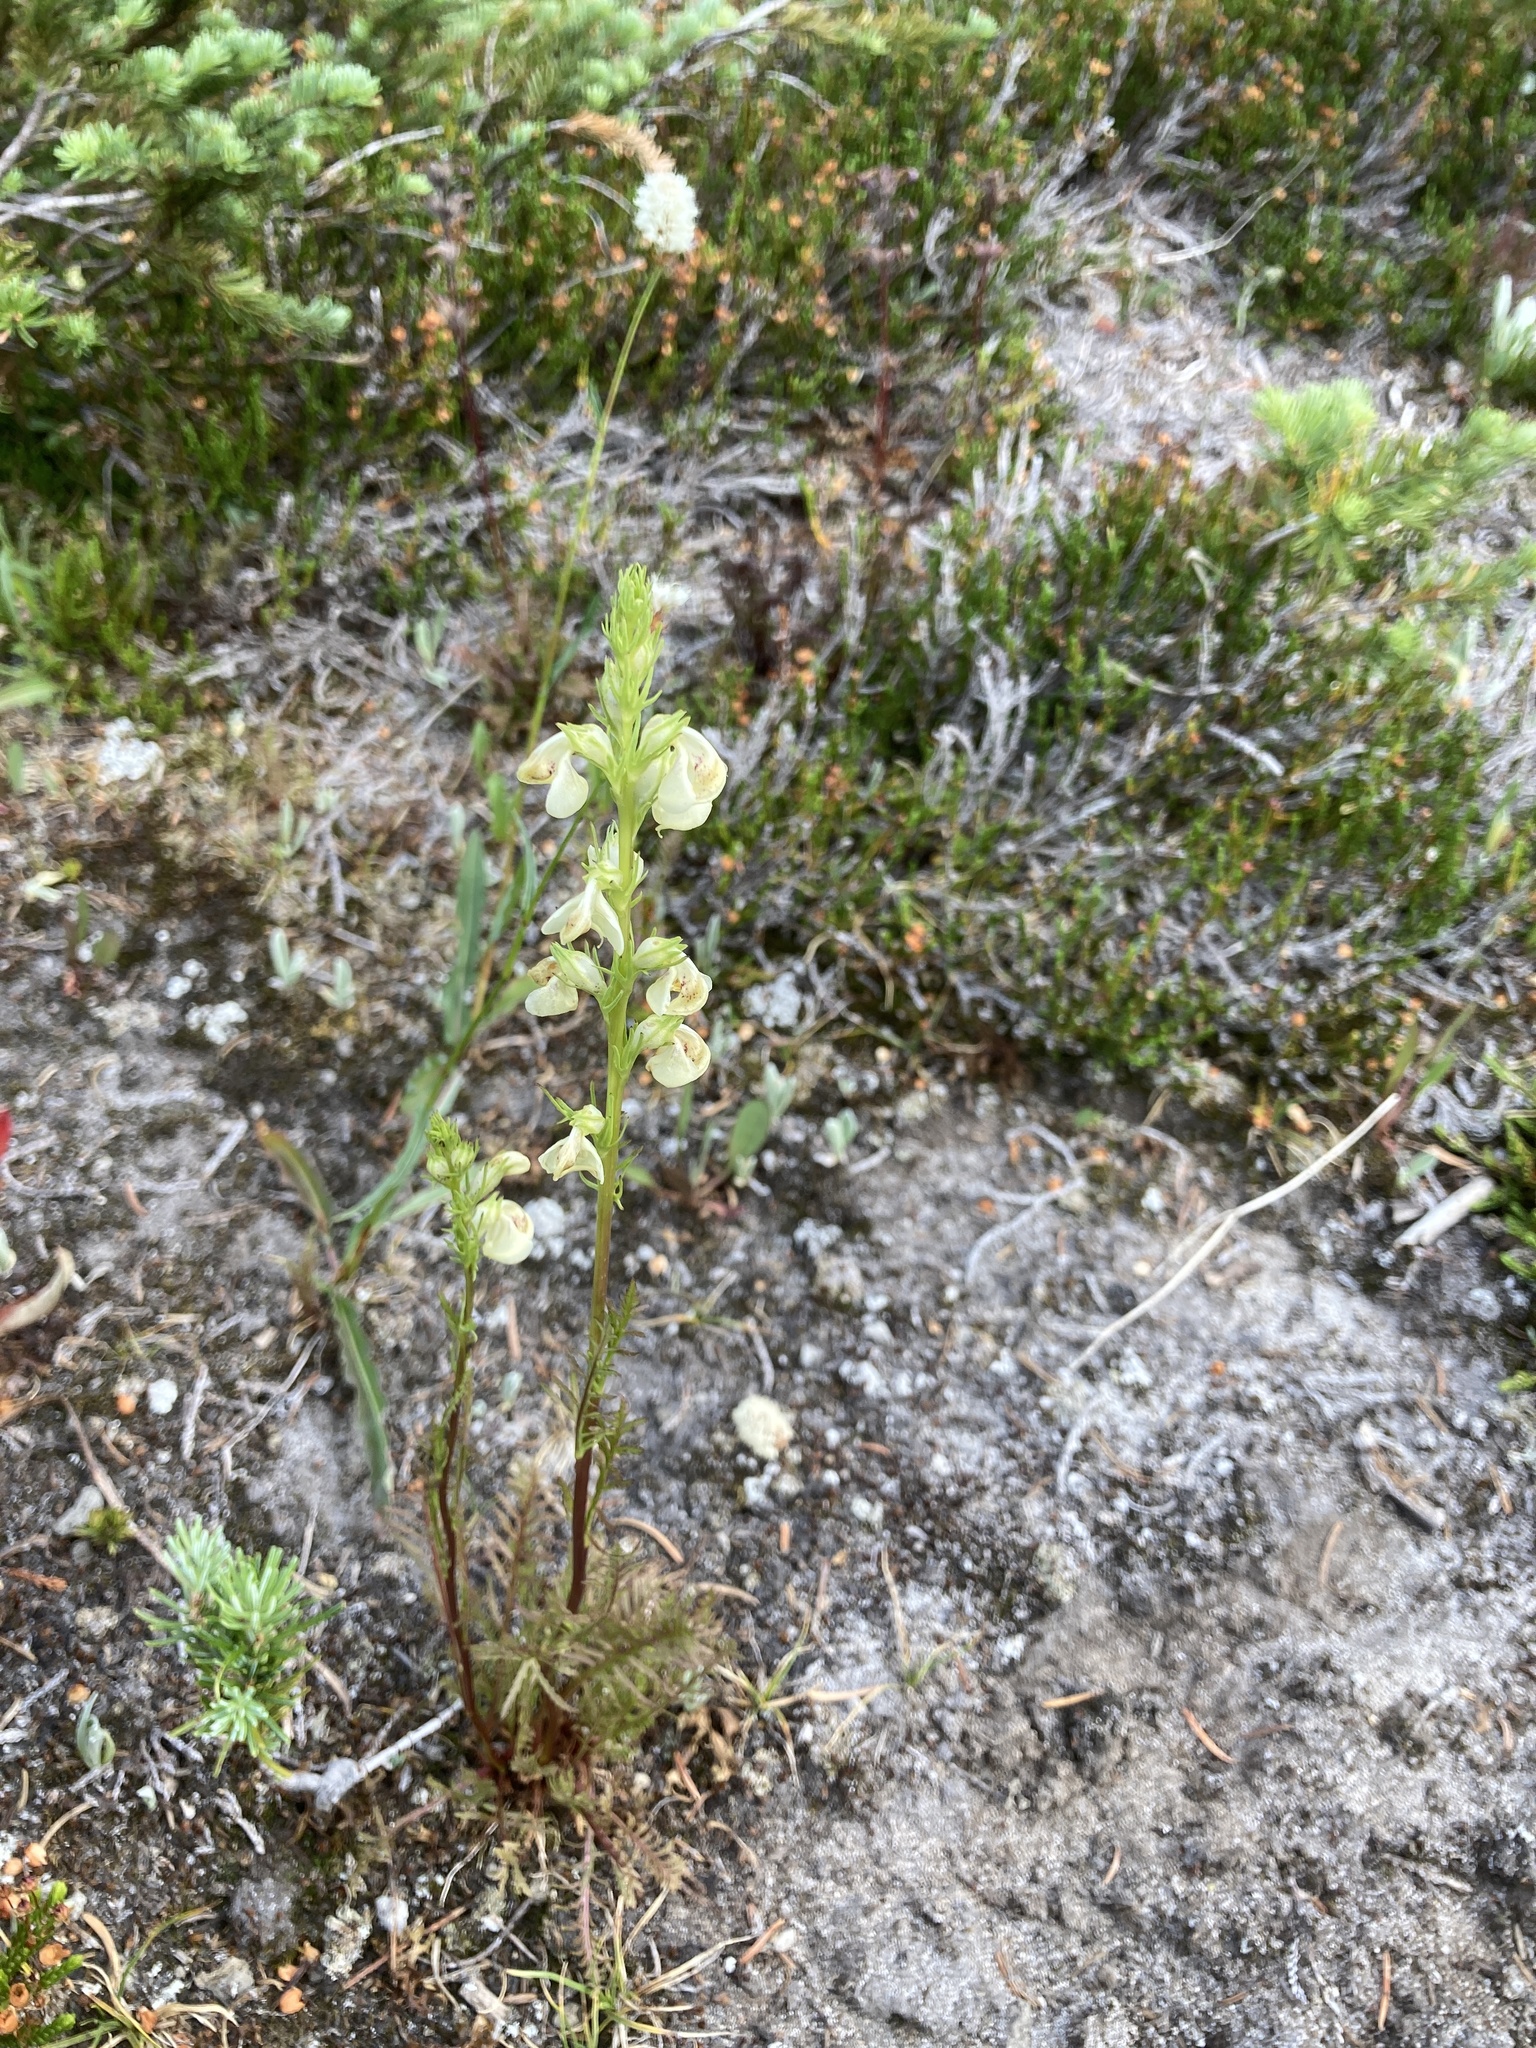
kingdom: Plantae
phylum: Tracheophyta
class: Magnoliopsida
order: Lamiales
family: Orobanchaceae
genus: Pedicularis
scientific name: Pedicularis contorta
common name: Coiled lousewort
